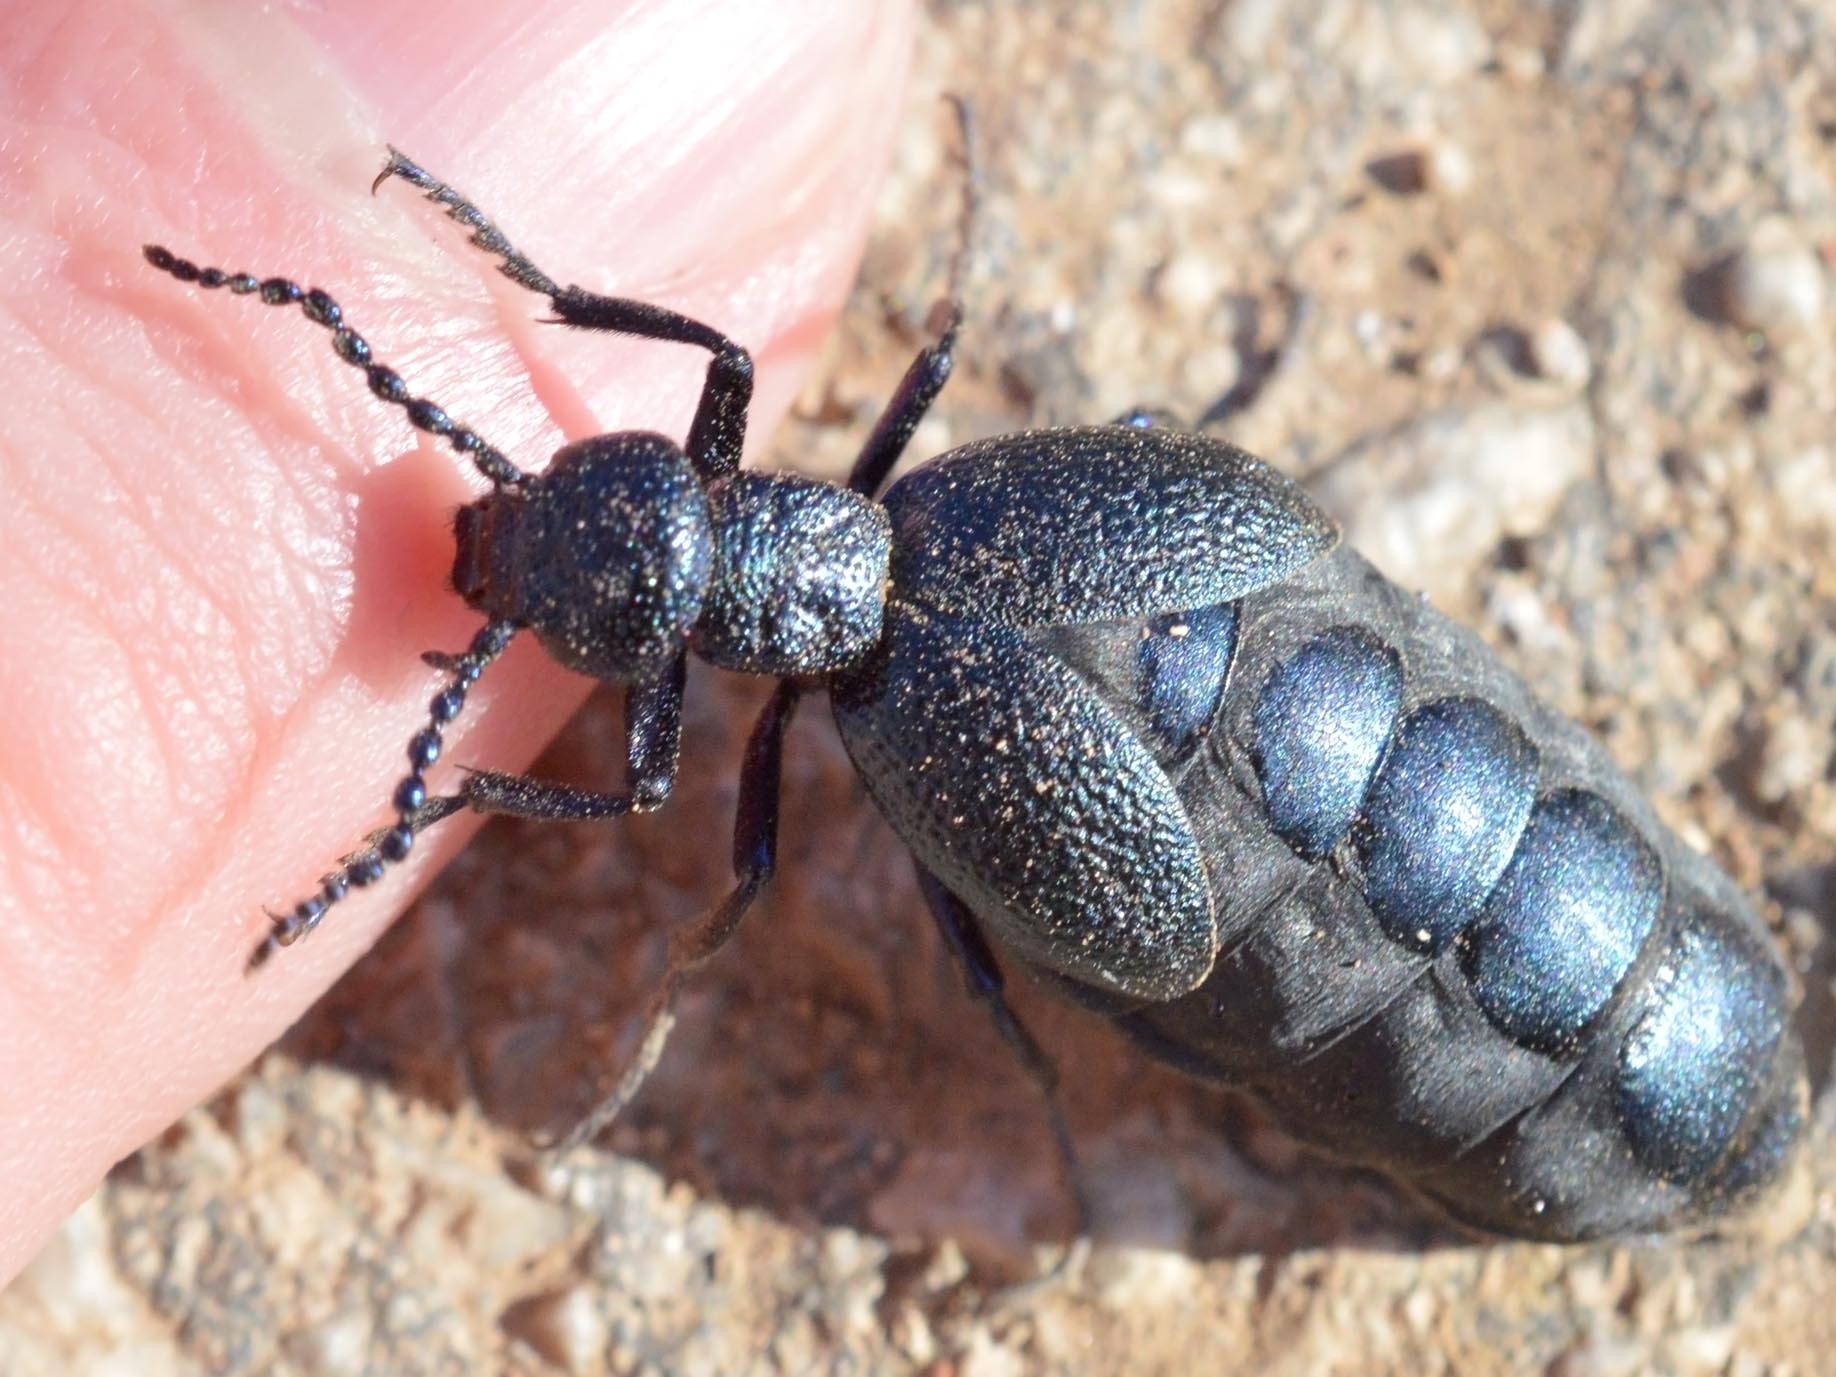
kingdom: Animalia
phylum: Arthropoda
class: Insecta
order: Coleoptera
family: Meloidae
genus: Meloe
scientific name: Meloe proscarabaeus
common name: Black oil-beetle
